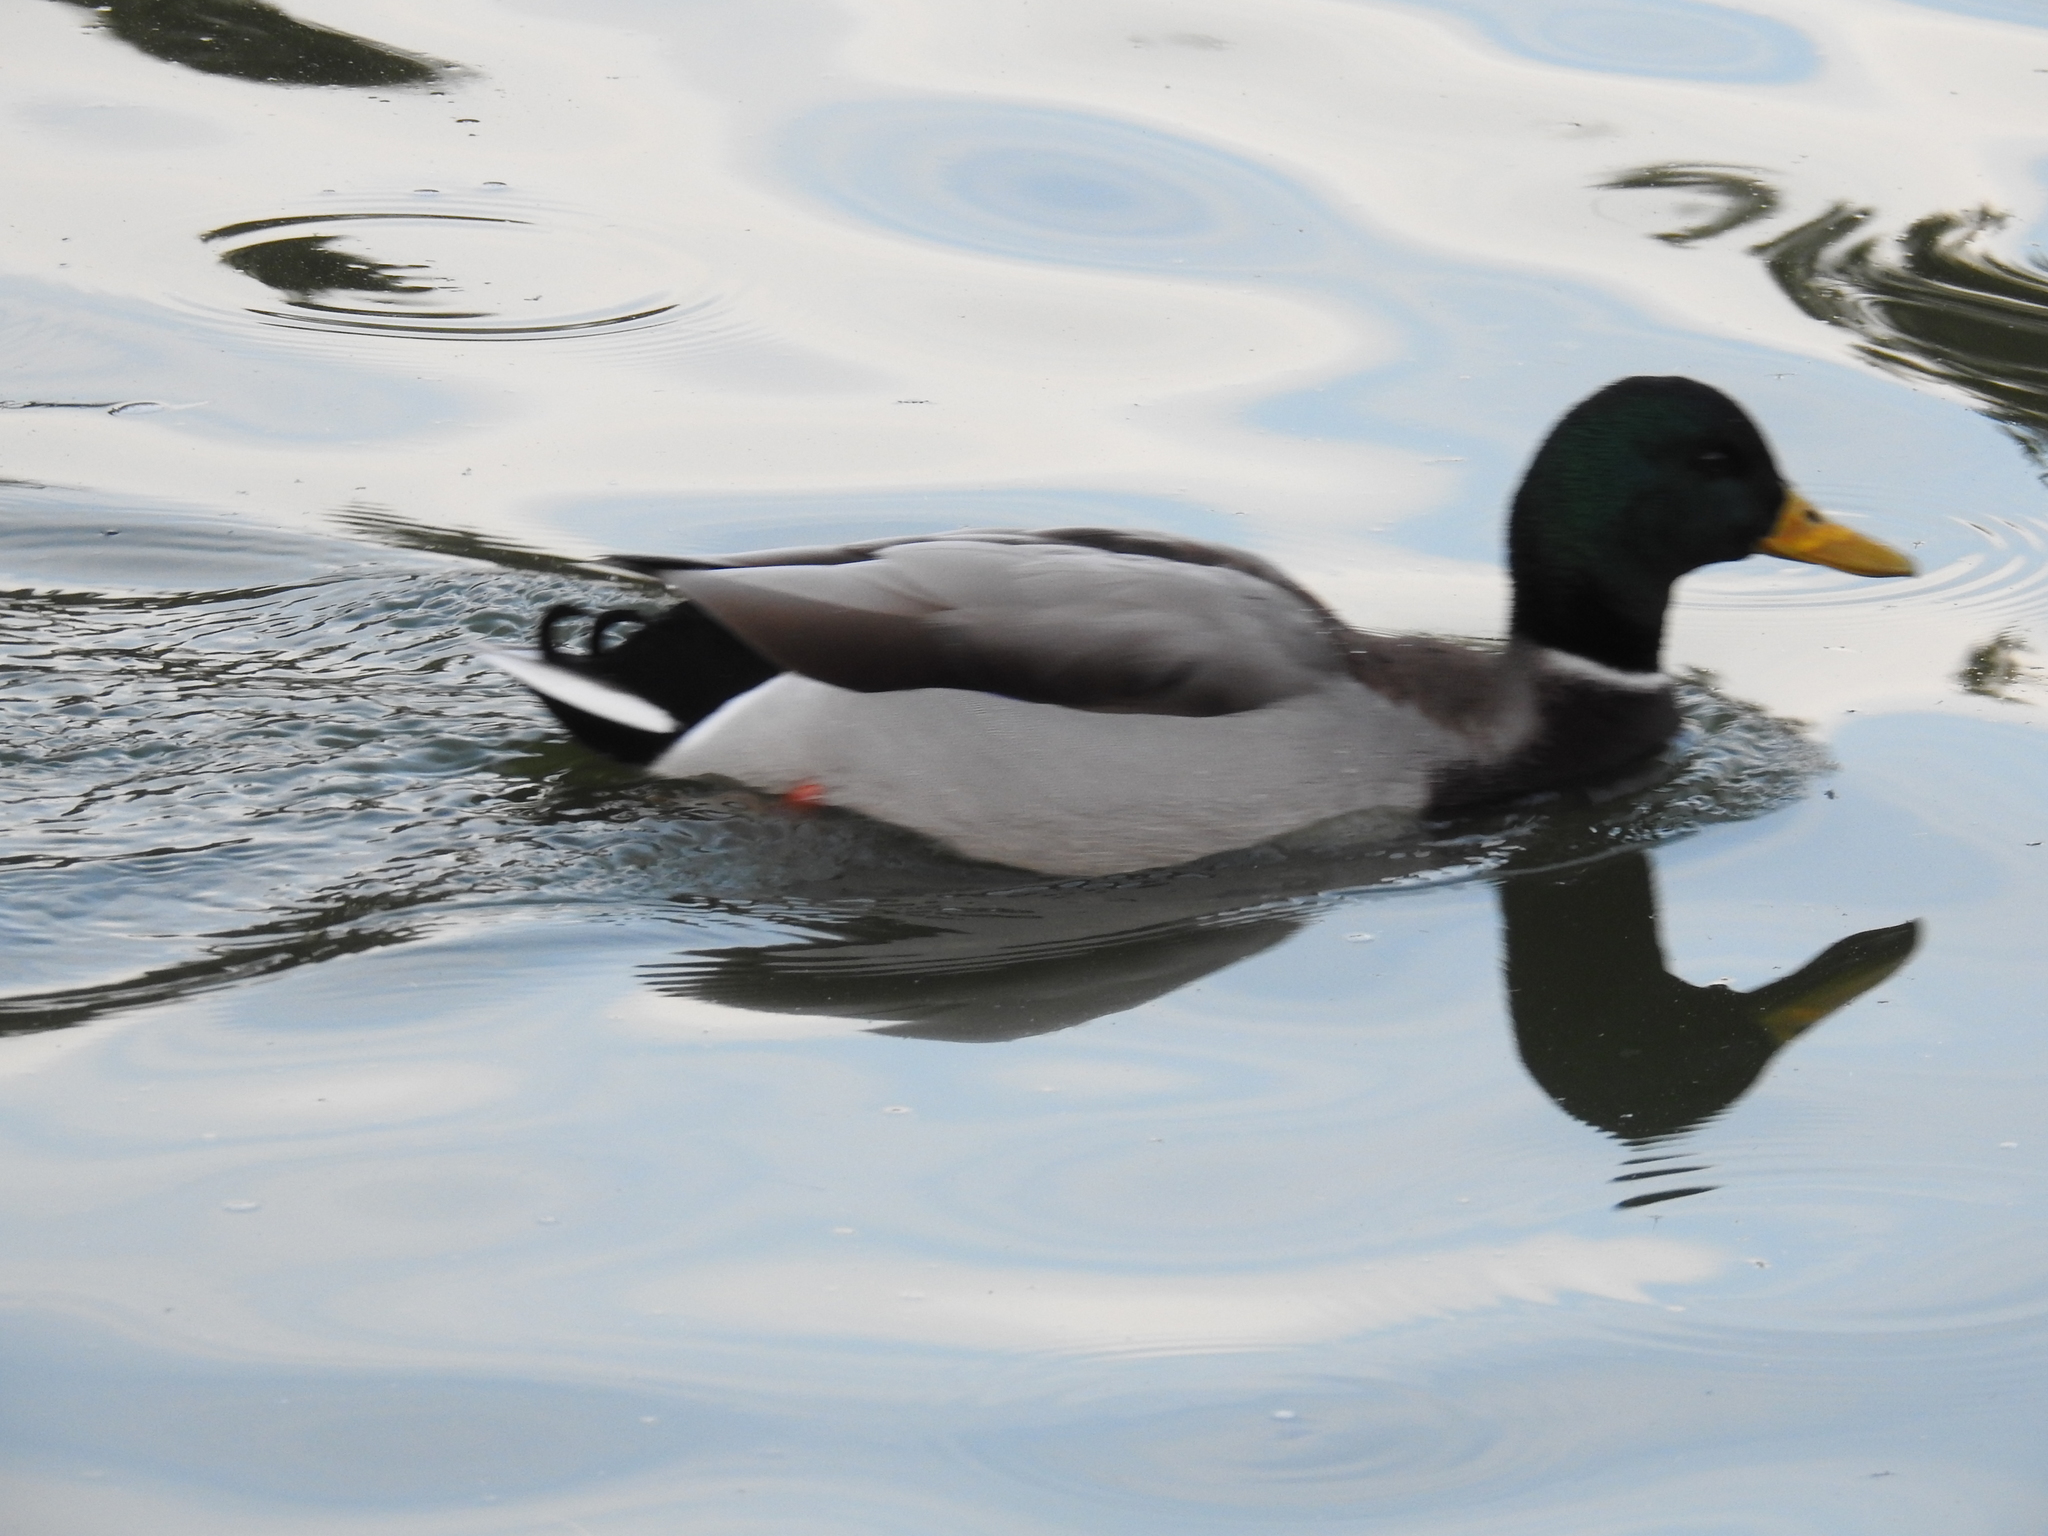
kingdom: Animalia
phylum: Chordata
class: Aves
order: Anseriformes
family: Anatidae
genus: Anas
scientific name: Anas platyrhynchos
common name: Mallard
